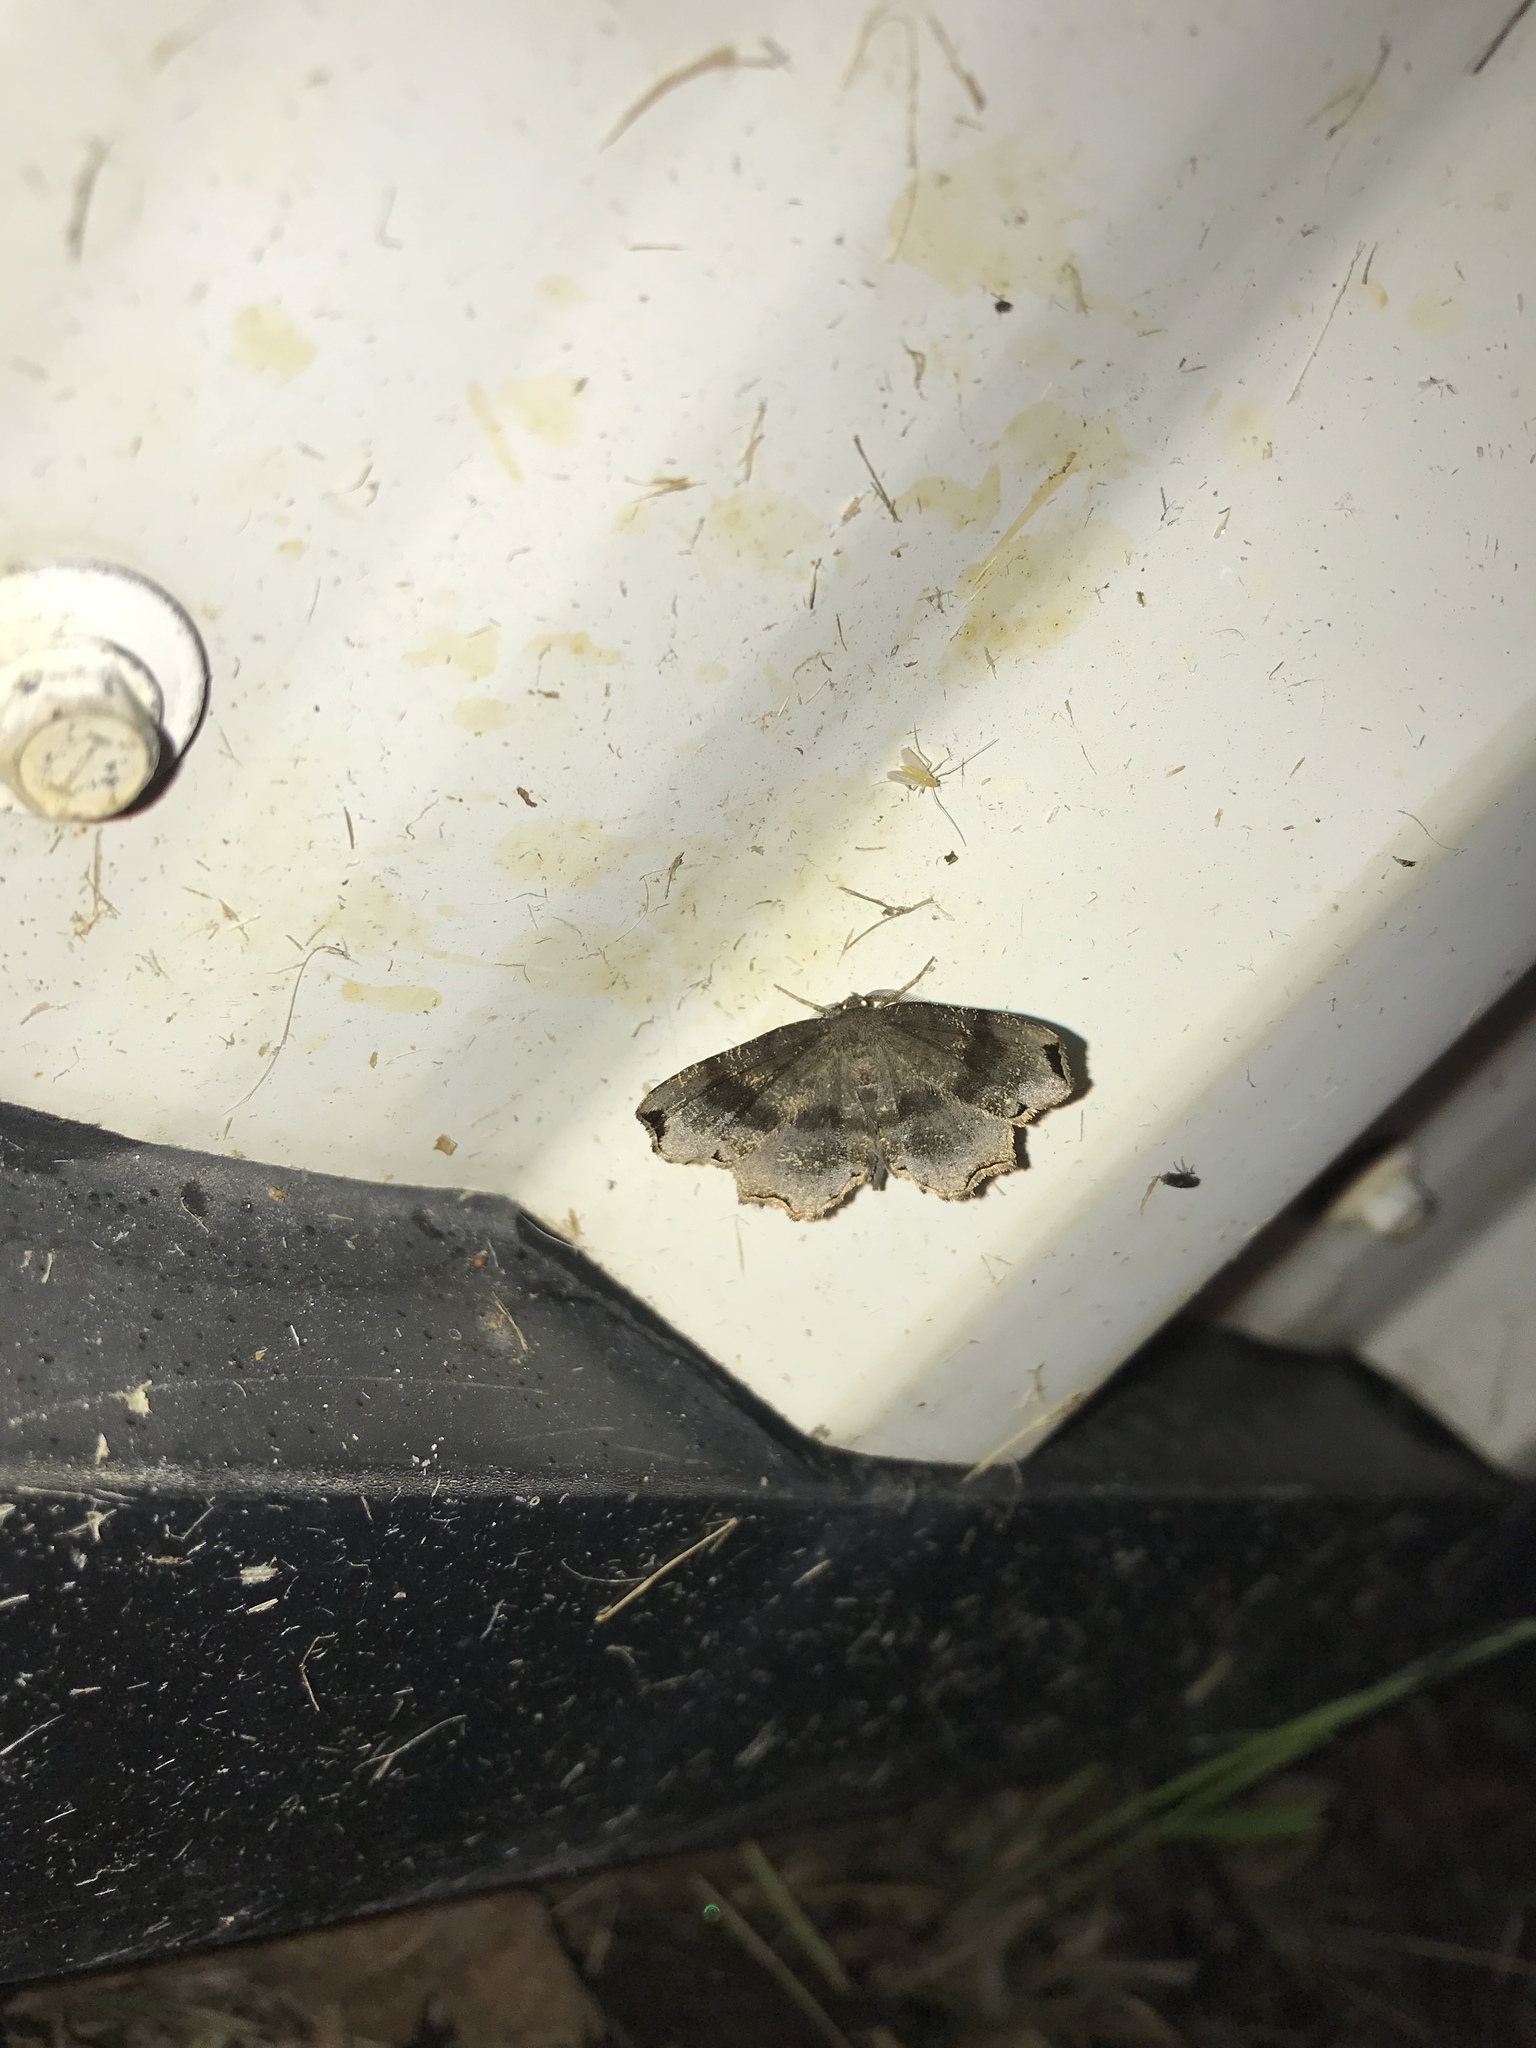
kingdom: Animalia
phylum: Arthropoda
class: Insecta
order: Lepidoptera
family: Geometridae
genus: Cepphis
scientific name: Cepphis decoloraria
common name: Dark scallop moth
